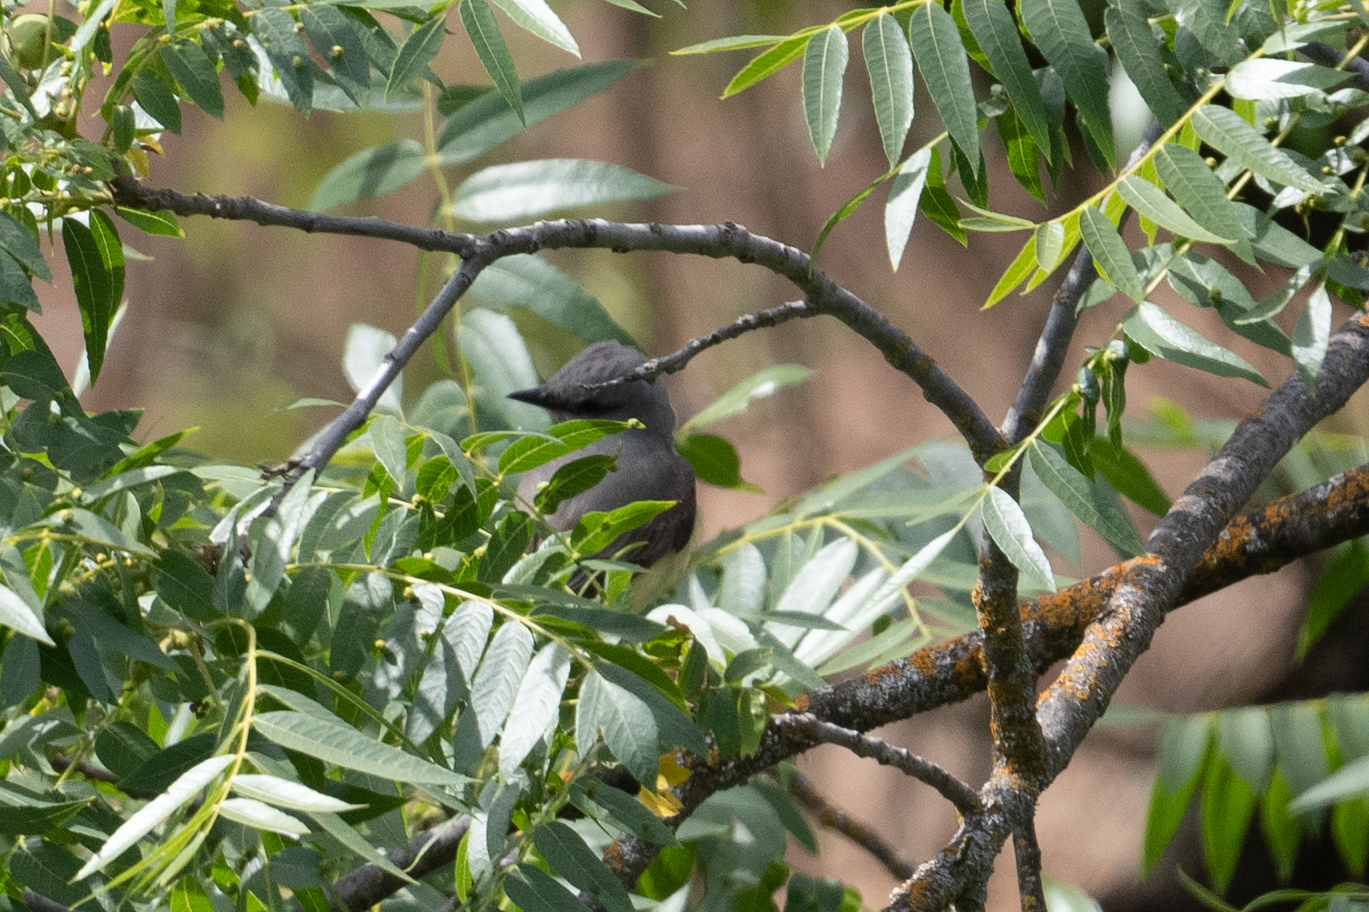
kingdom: Animalia
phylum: Chordata
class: Aves
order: Passeriformes
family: Tyrannidae
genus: Tyrannus
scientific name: Tyrannus verticalis
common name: Western kingbird
